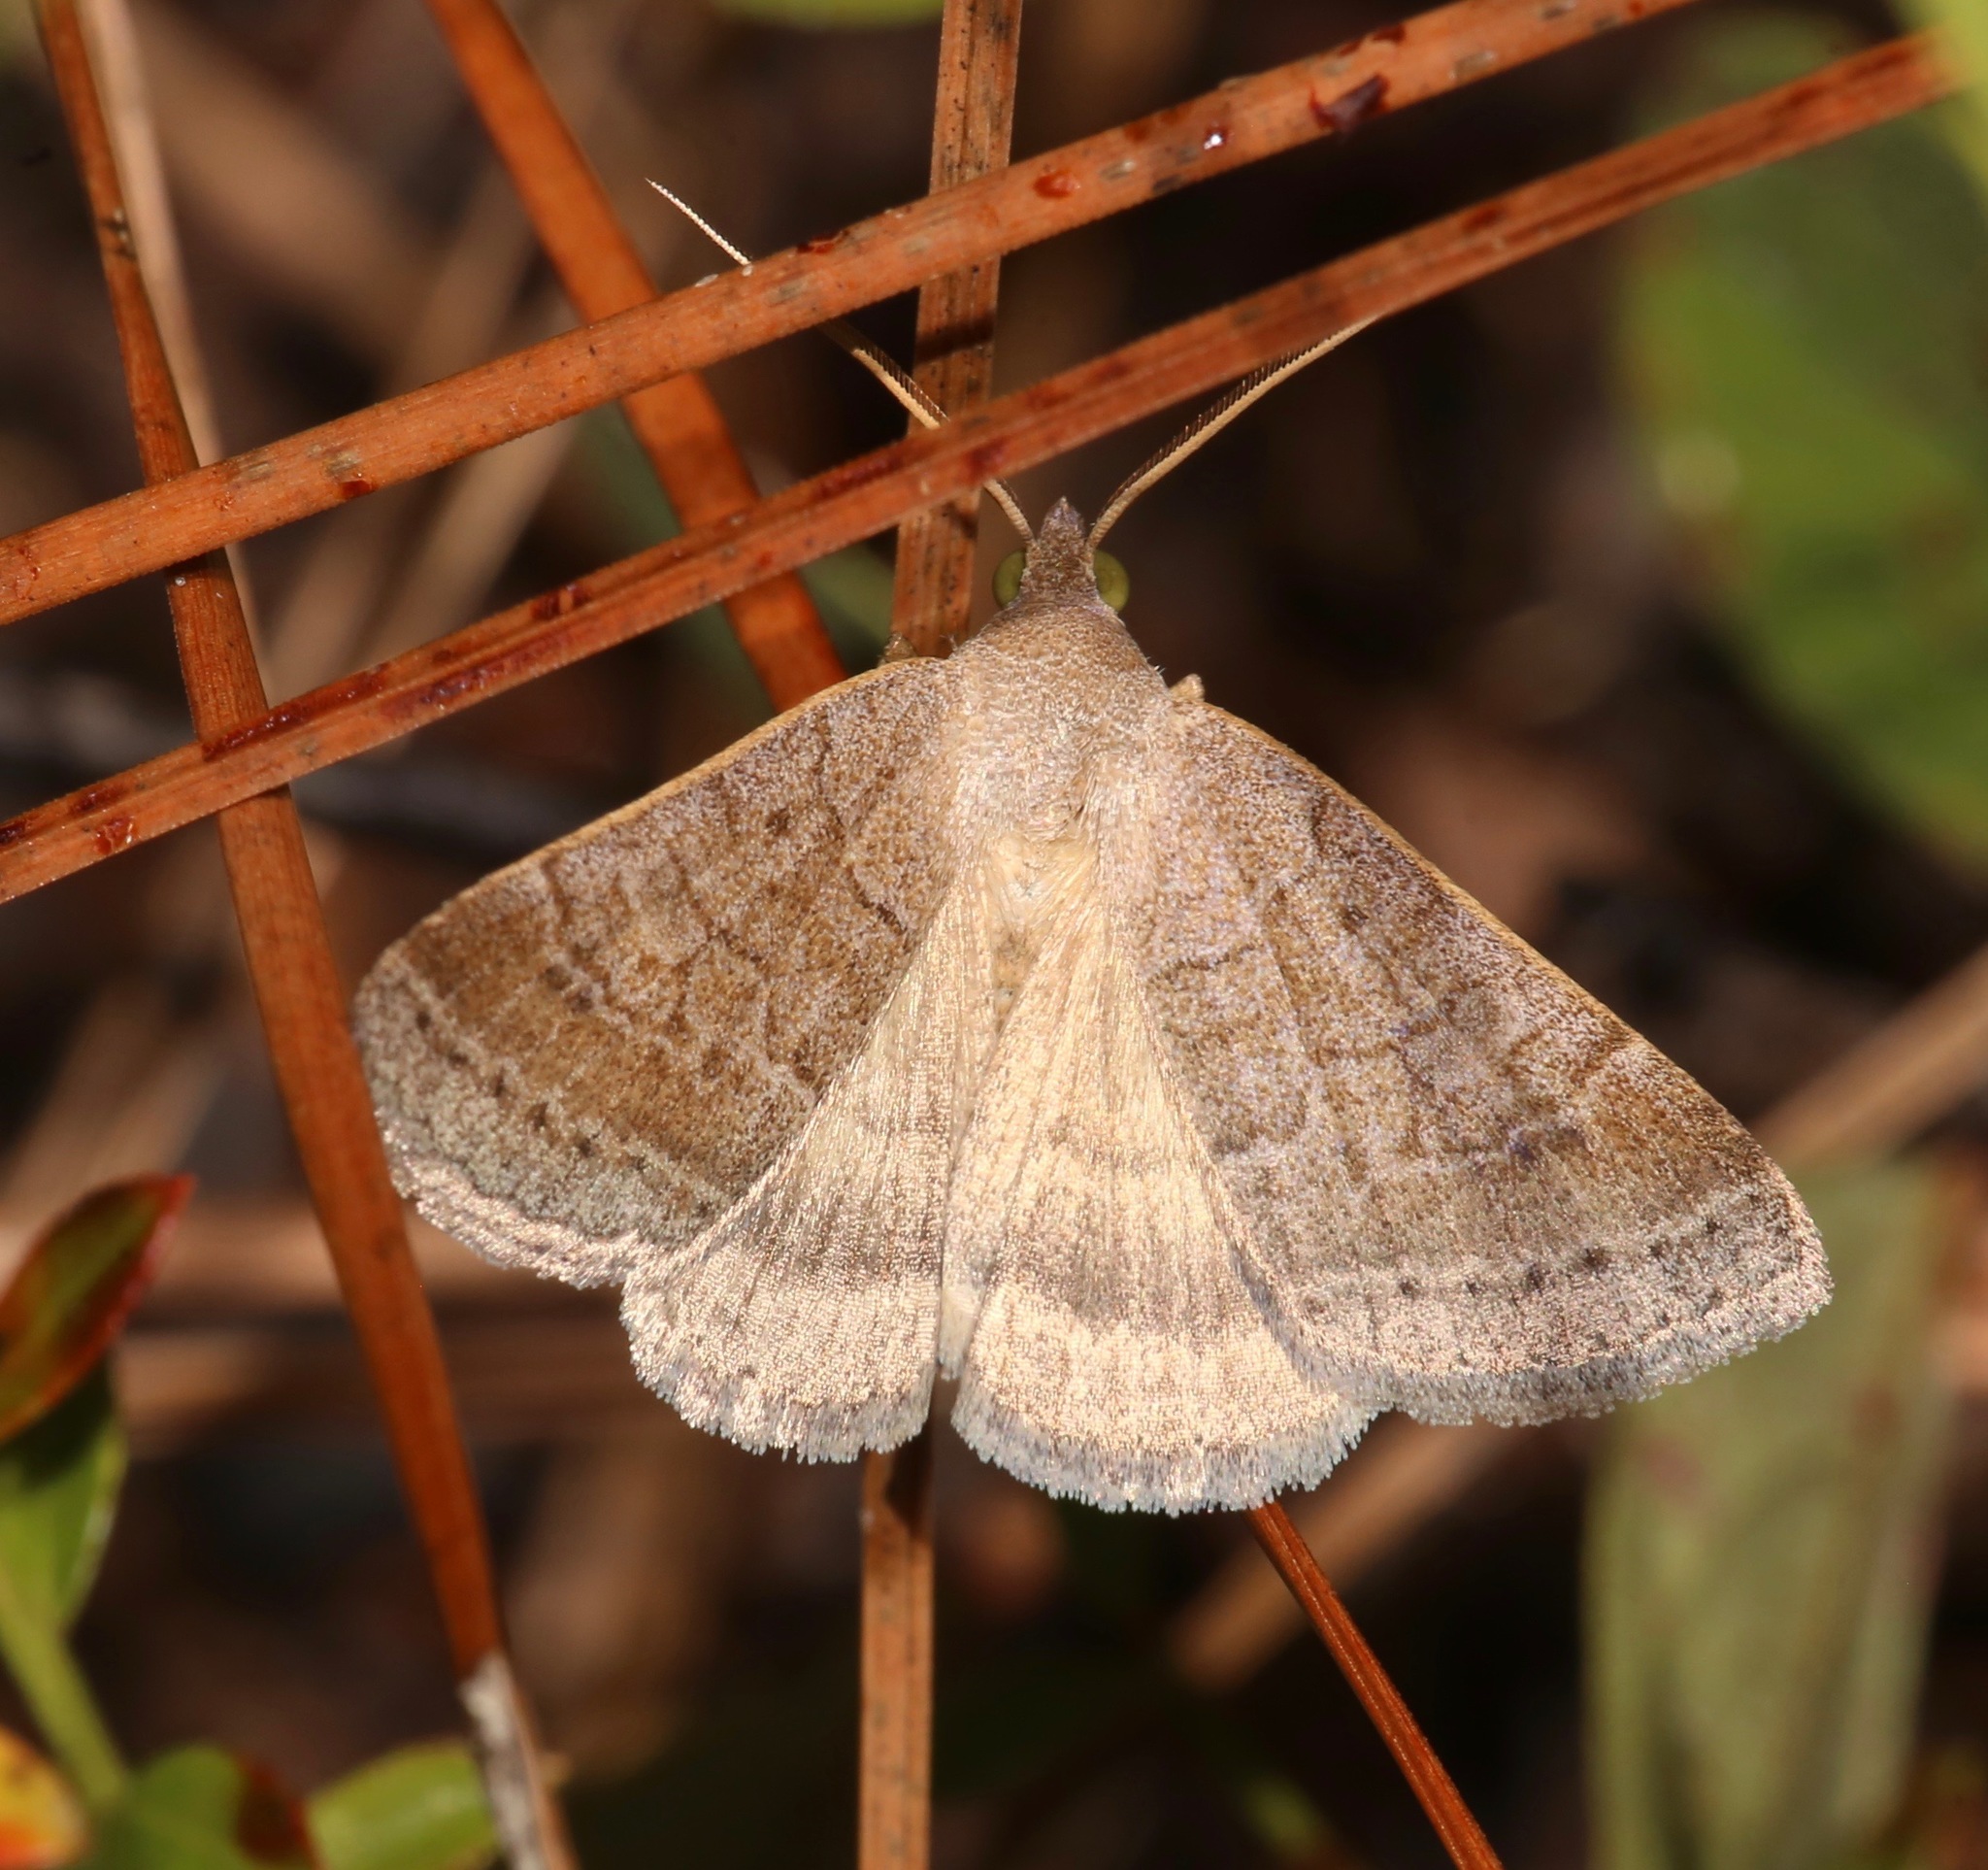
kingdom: Animalia
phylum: Arthropoda
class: Insecta
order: Lepidoptera
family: Erebidae
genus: Caenurgia
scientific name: Caenurgia chloropha
